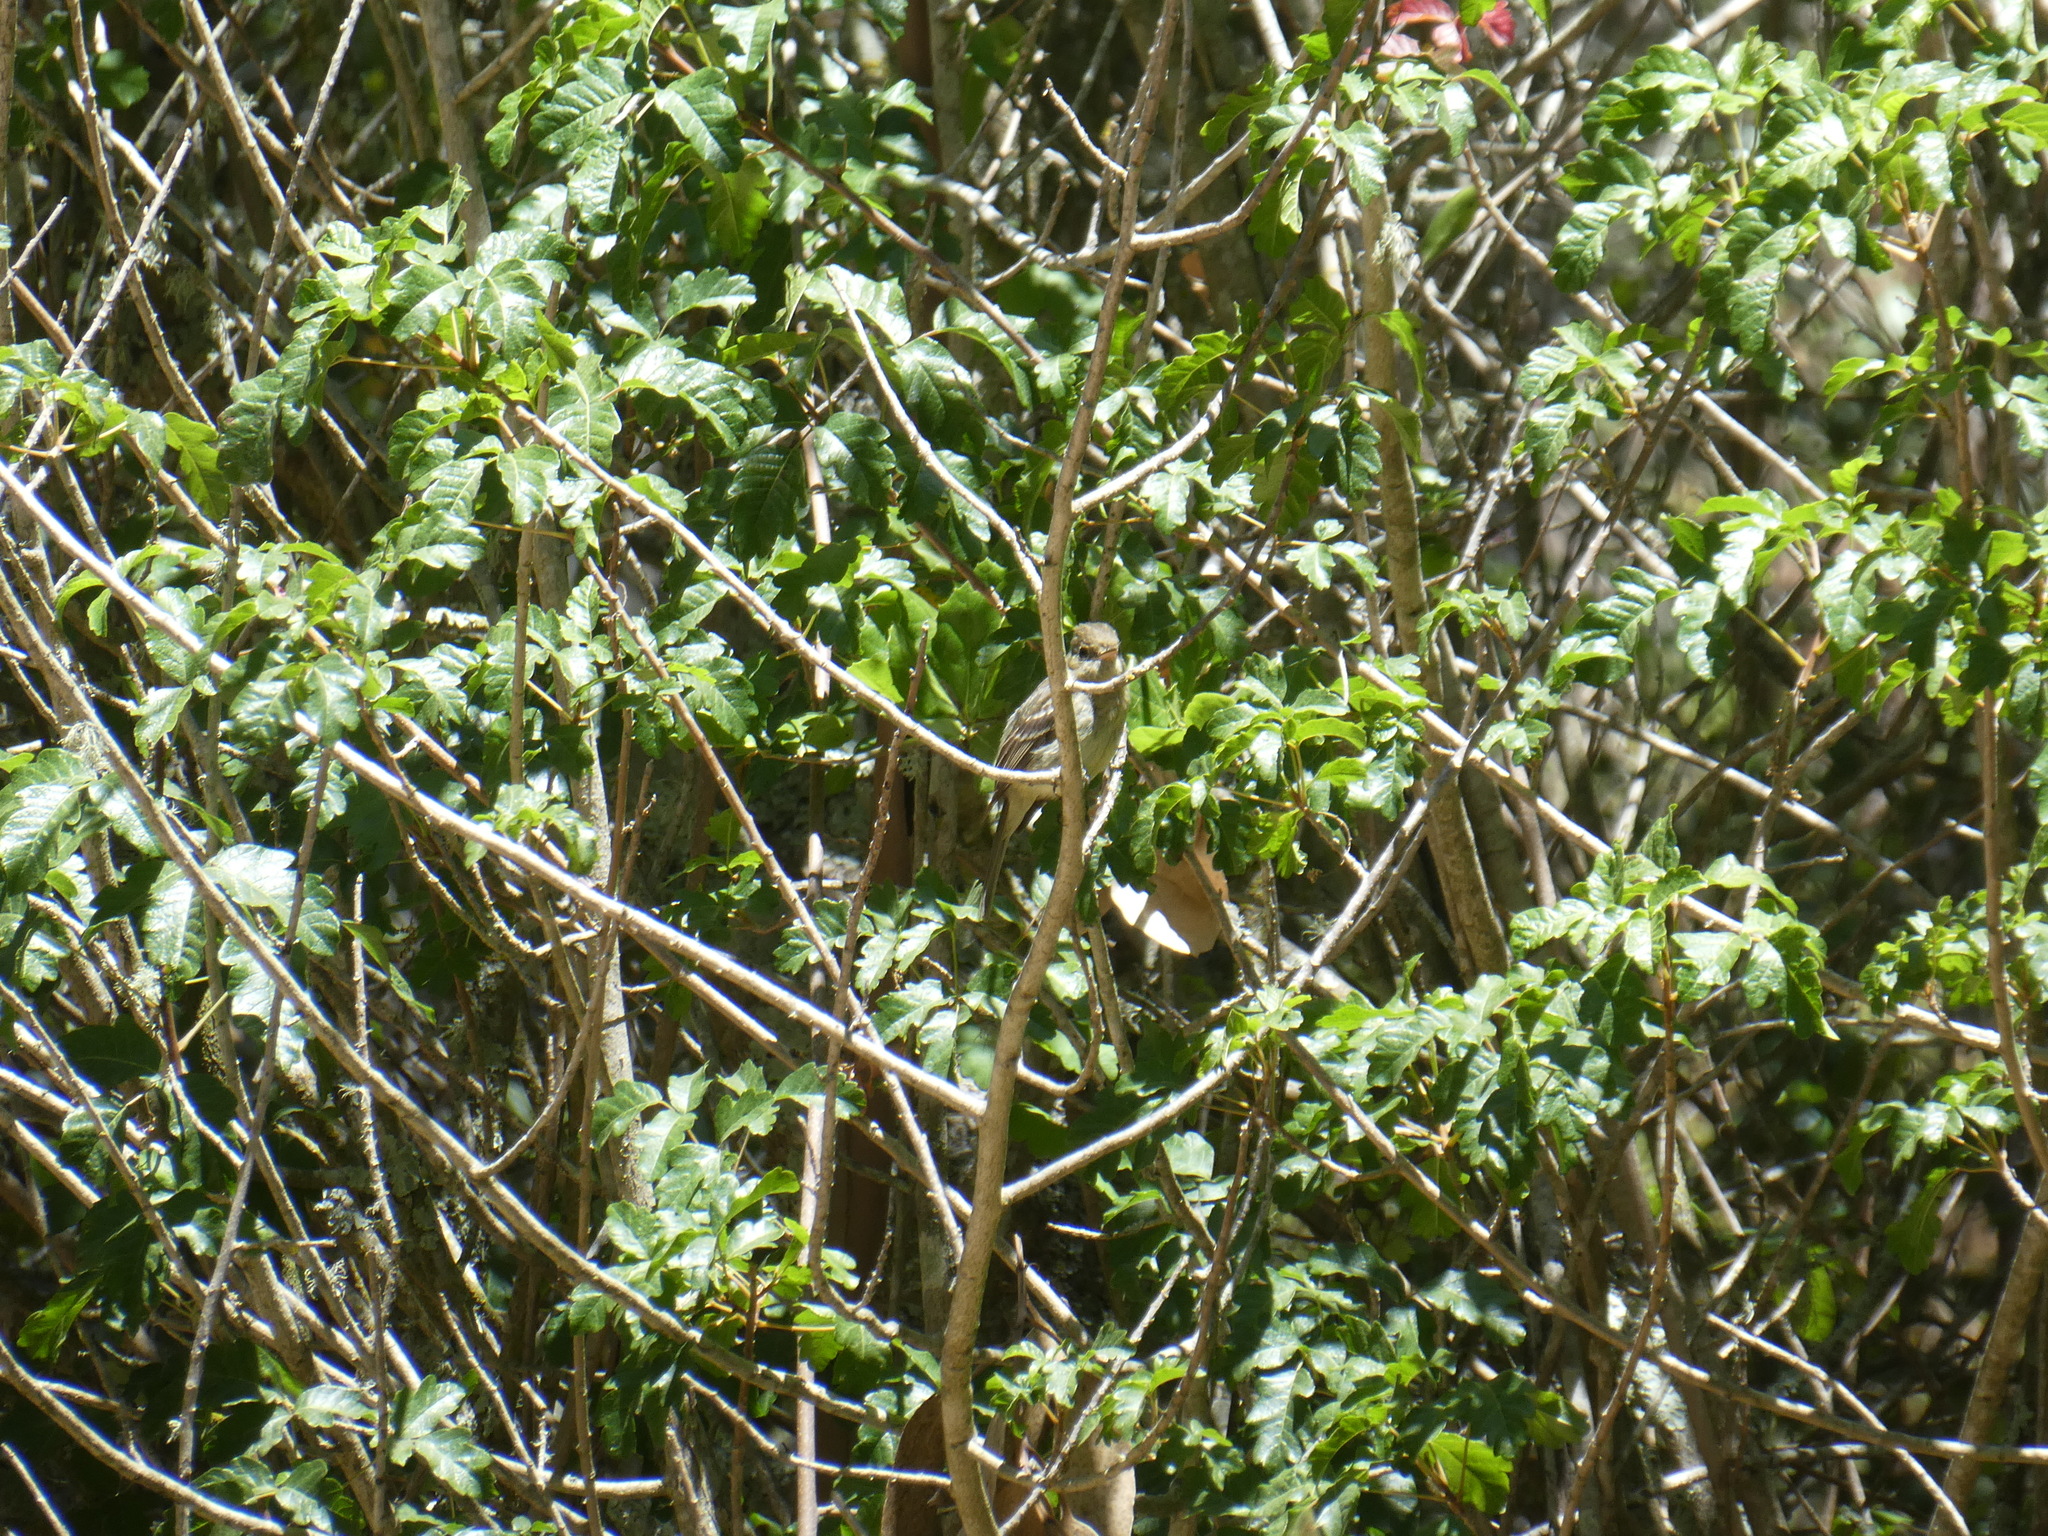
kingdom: Animalia
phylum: Chordata
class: Aves
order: Passeriformes
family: Tyrannidae
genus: Empidonax
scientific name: Empidonax difficilis
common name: Pacific-slope flycatcher
